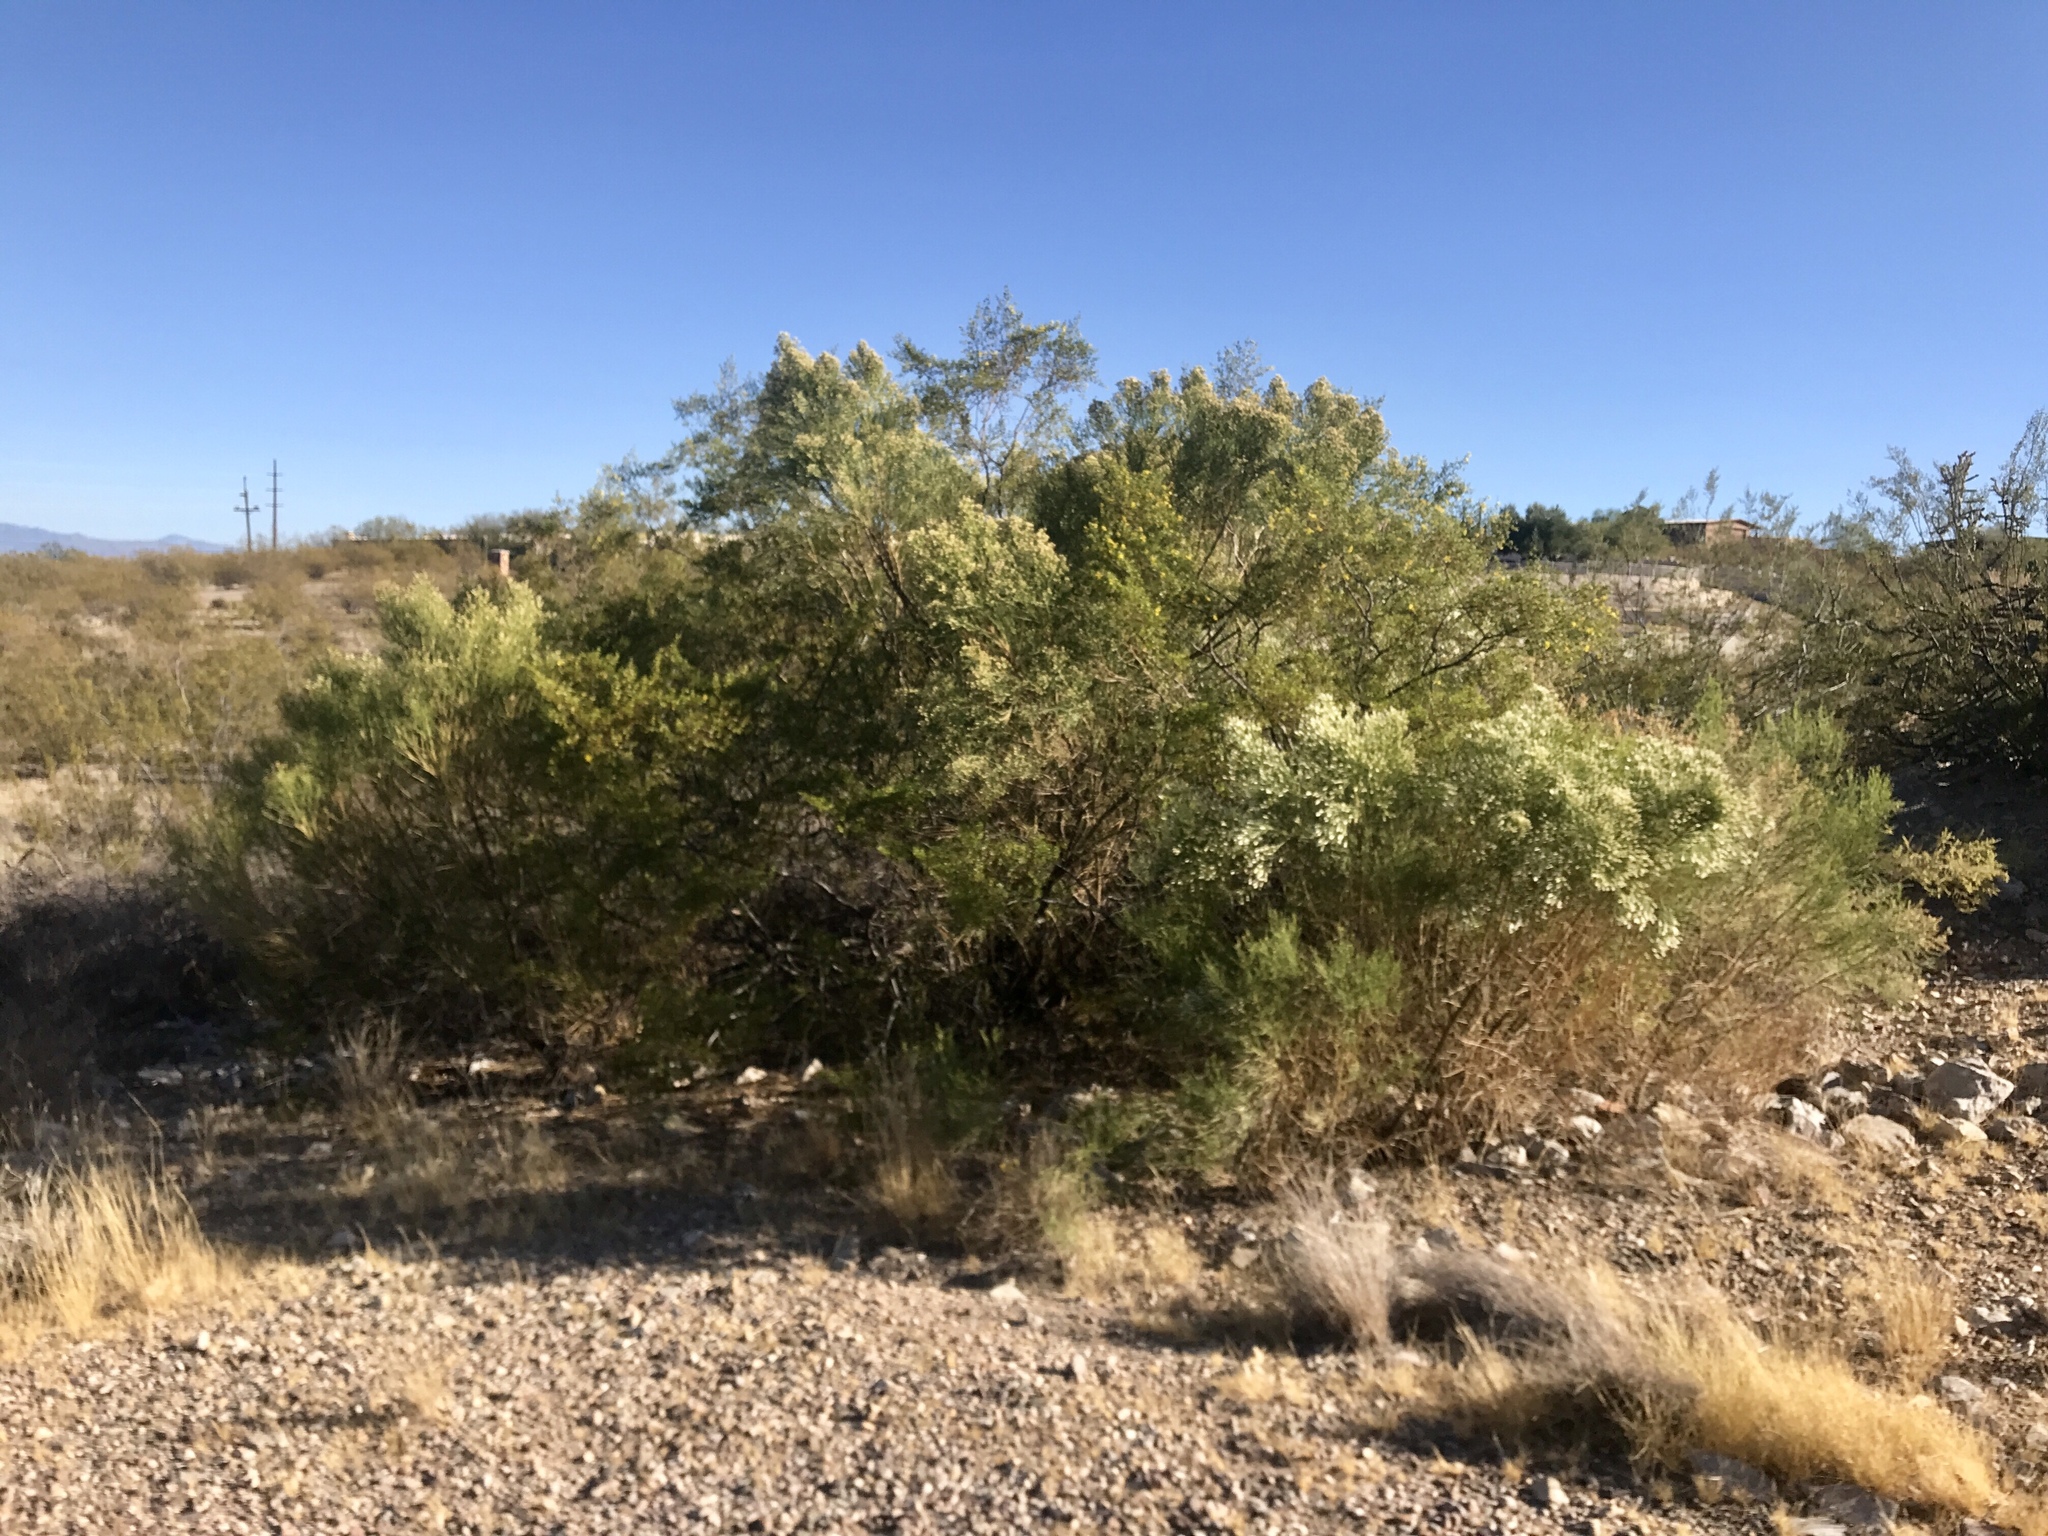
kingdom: Plantae
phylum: Tracheophyta
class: Magnoliopsida
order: Asterales
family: Asteraceae
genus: Baccharis
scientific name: Baccharis sarothroides
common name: Desert-broom
